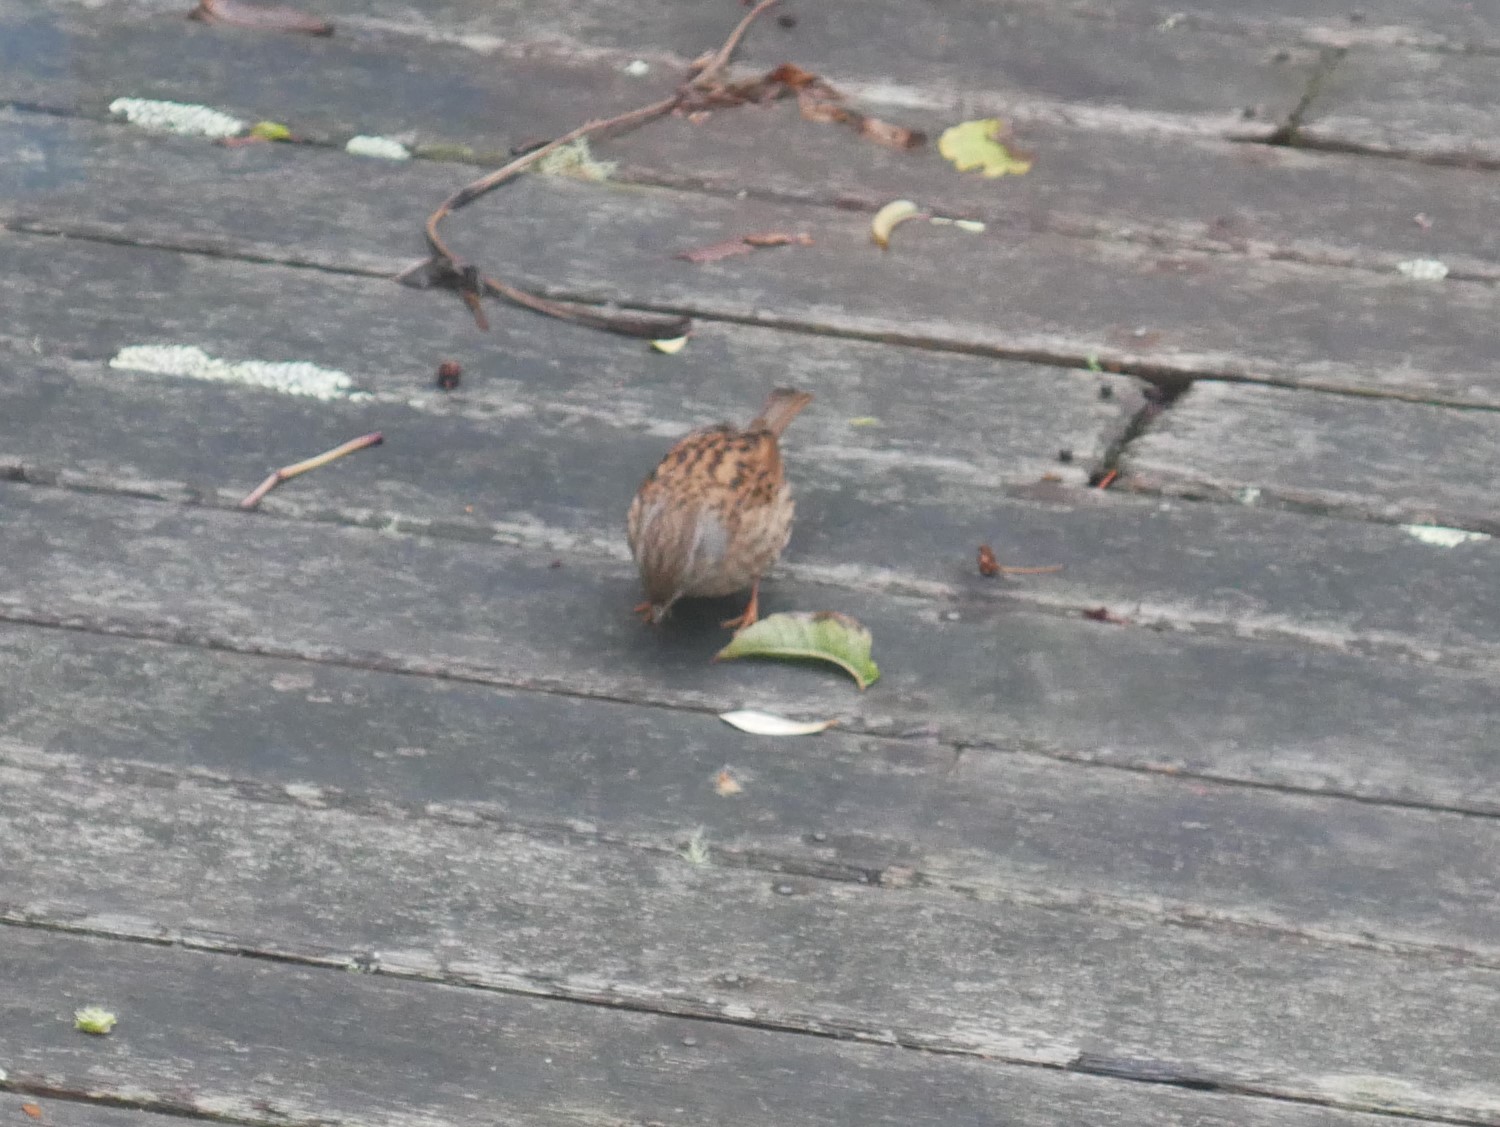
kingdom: Animalia
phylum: Chordata
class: Aves
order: Passeriformes
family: Prunellidae
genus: Prunella
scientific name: Prunella modularis
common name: Dunnock
